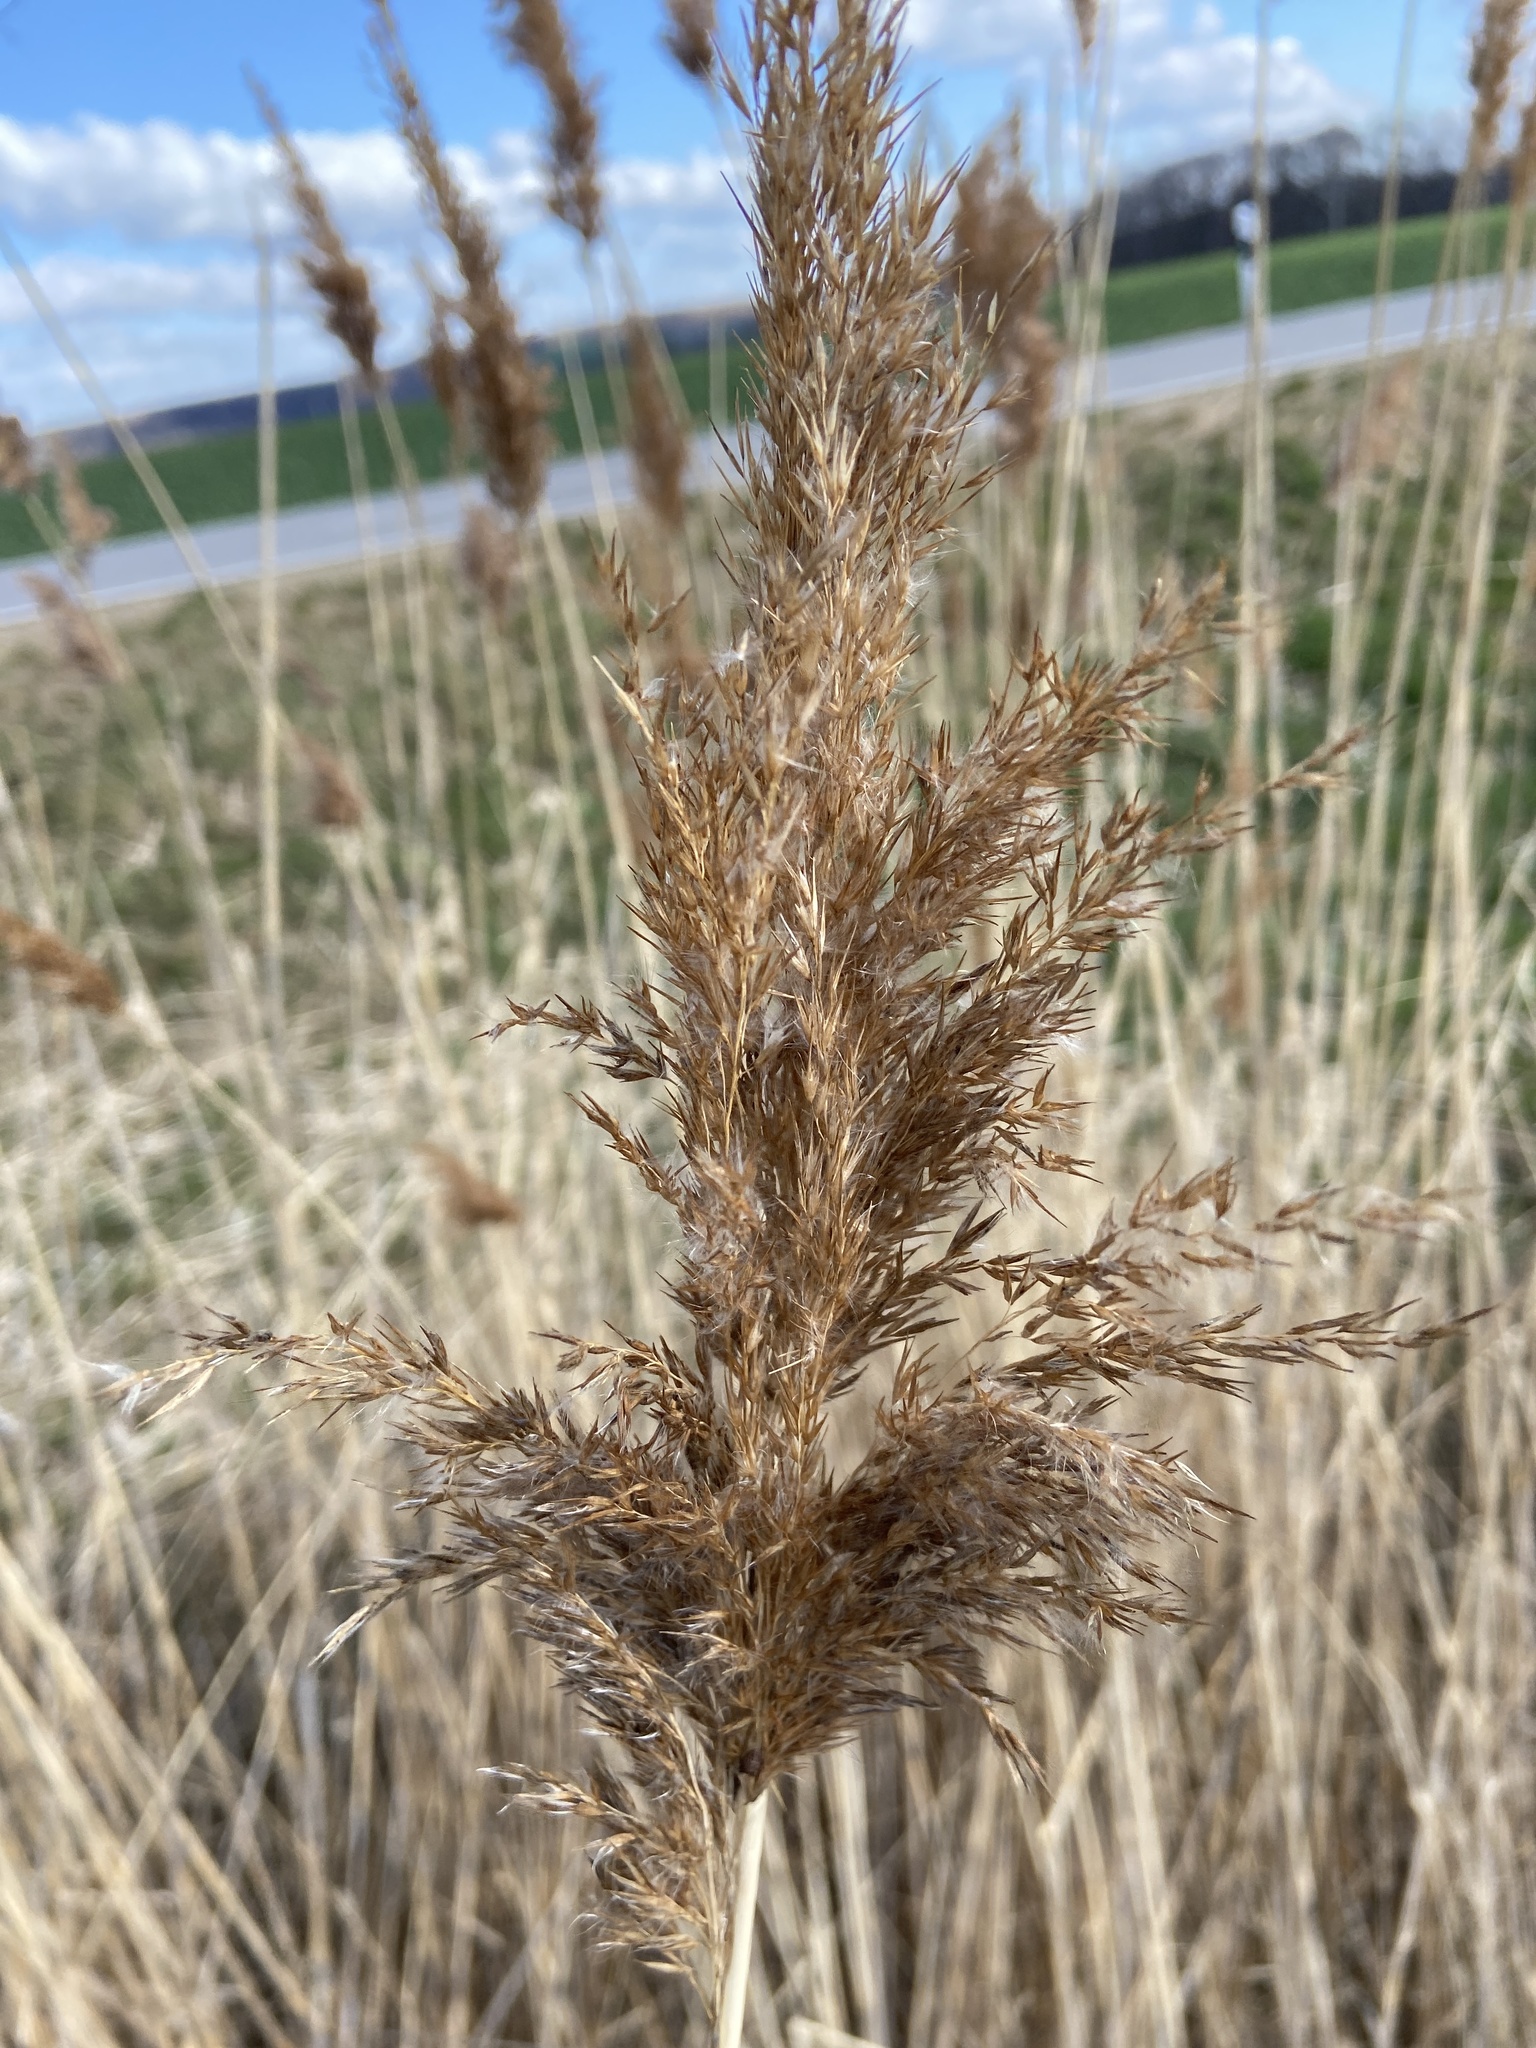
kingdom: Plantae
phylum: Tracheophyta
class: Liliopsida
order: Poales
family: Poaceae
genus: Phragmites
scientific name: Phragmites australis
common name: Common reed
